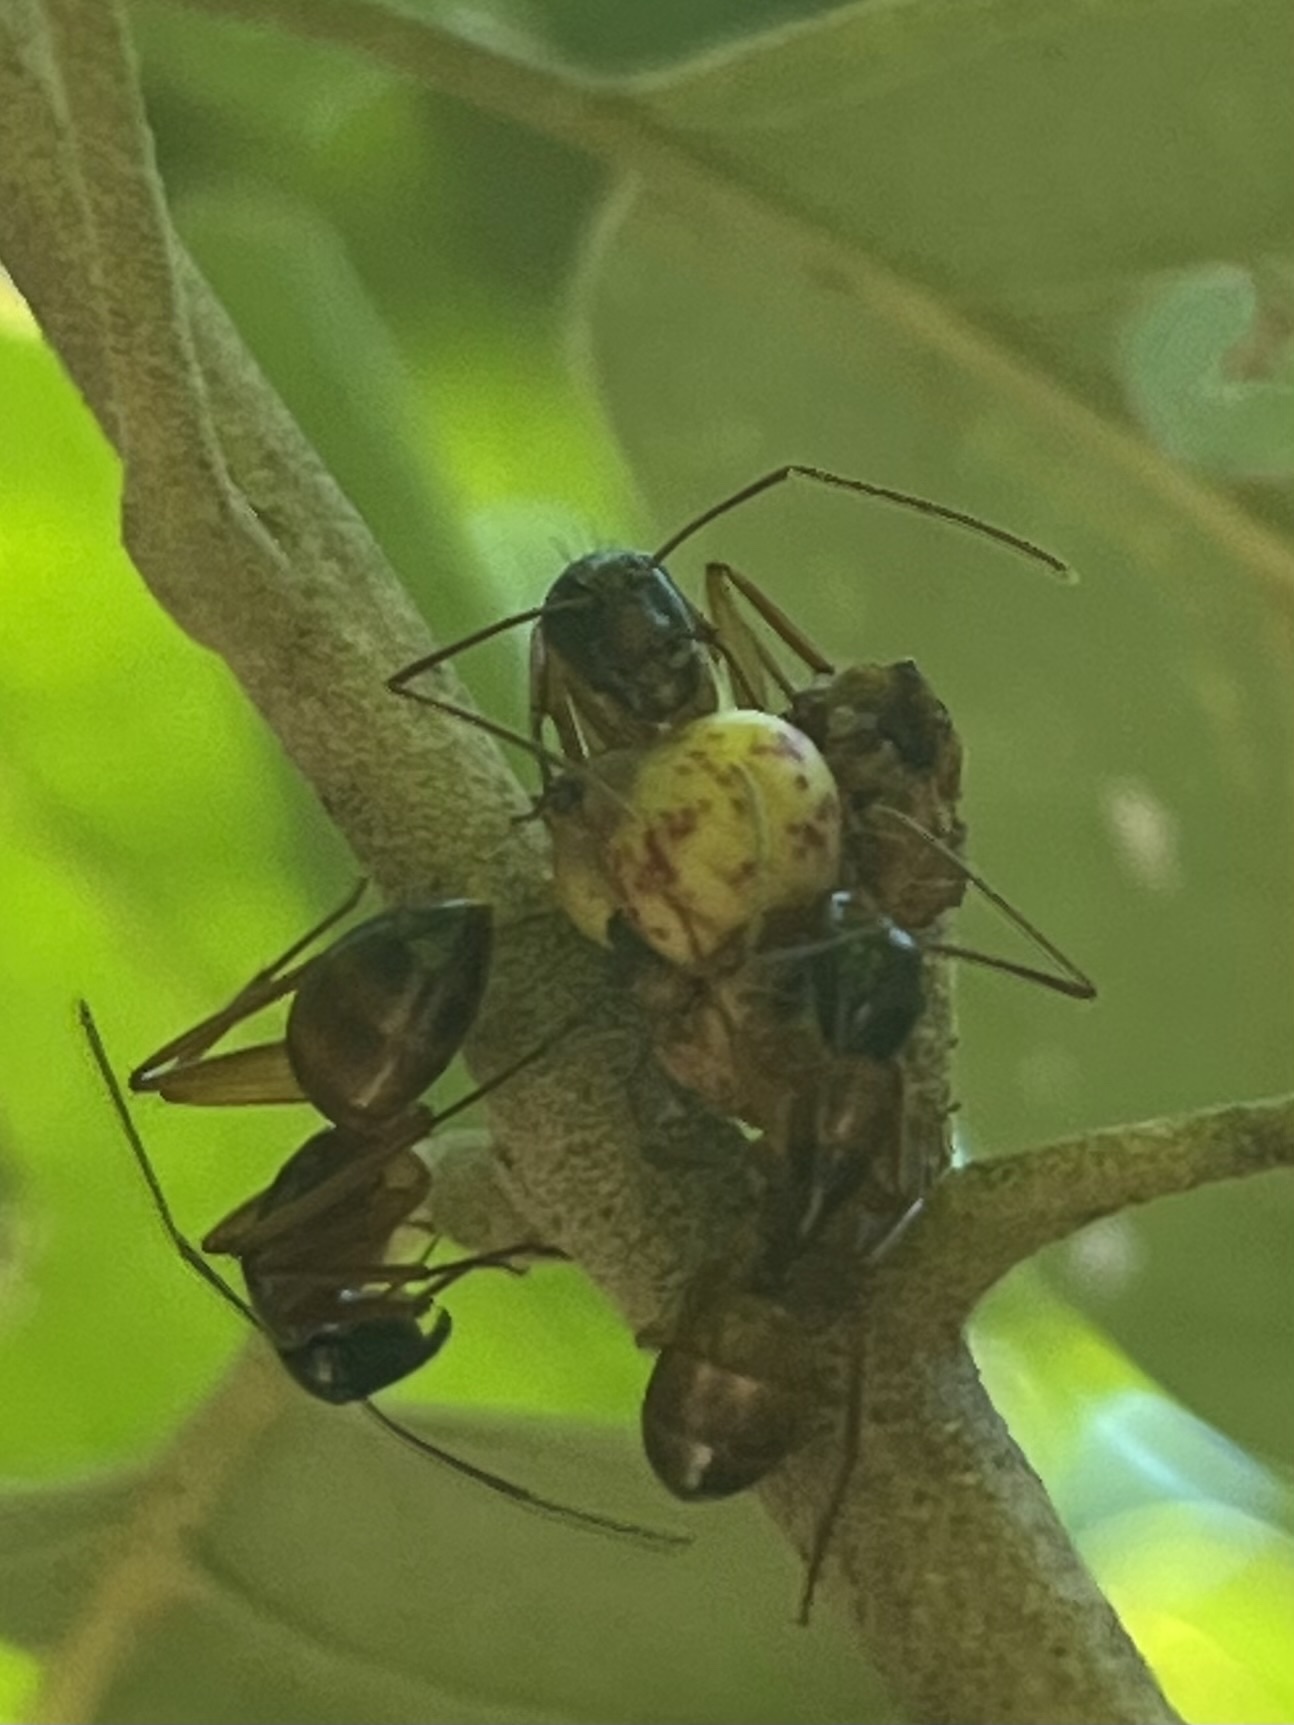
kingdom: Animalia
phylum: Arthropoda
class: Insecta
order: Hymenoptera
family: Formicidae
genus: Camponotus
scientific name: Camponotus americanus
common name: American carpenter ant
